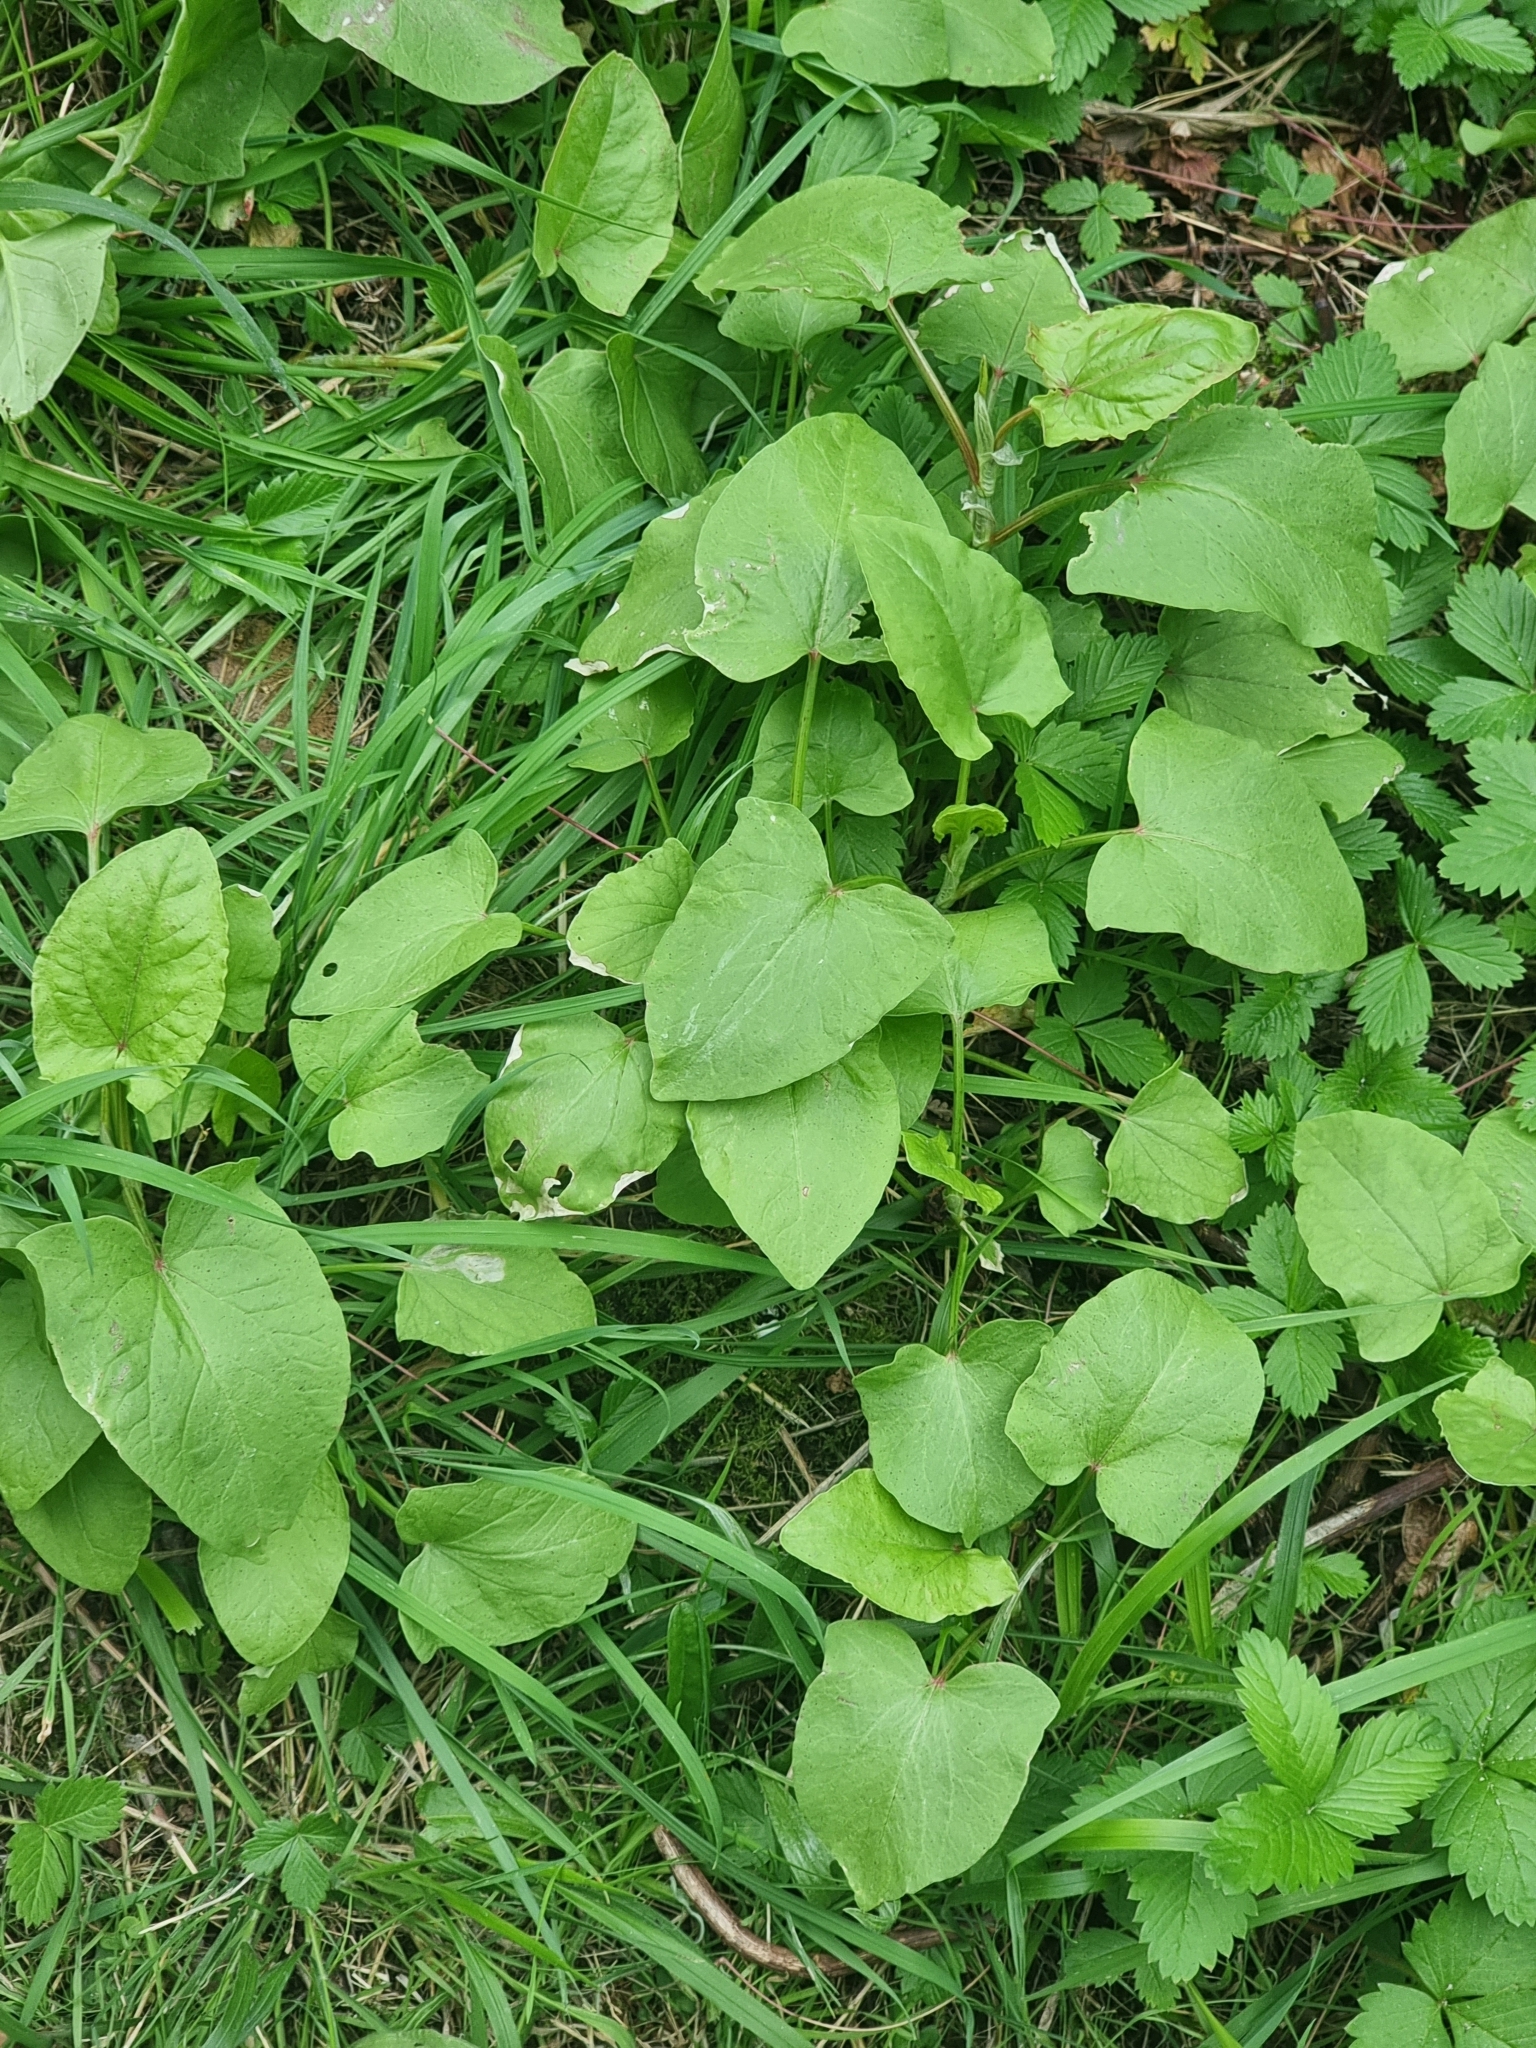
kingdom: Plantae
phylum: Tracheophyta
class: Magnoliopsida
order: Caryophyllales
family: Polygonaceae
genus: Rumex
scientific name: Rumex maderensis
